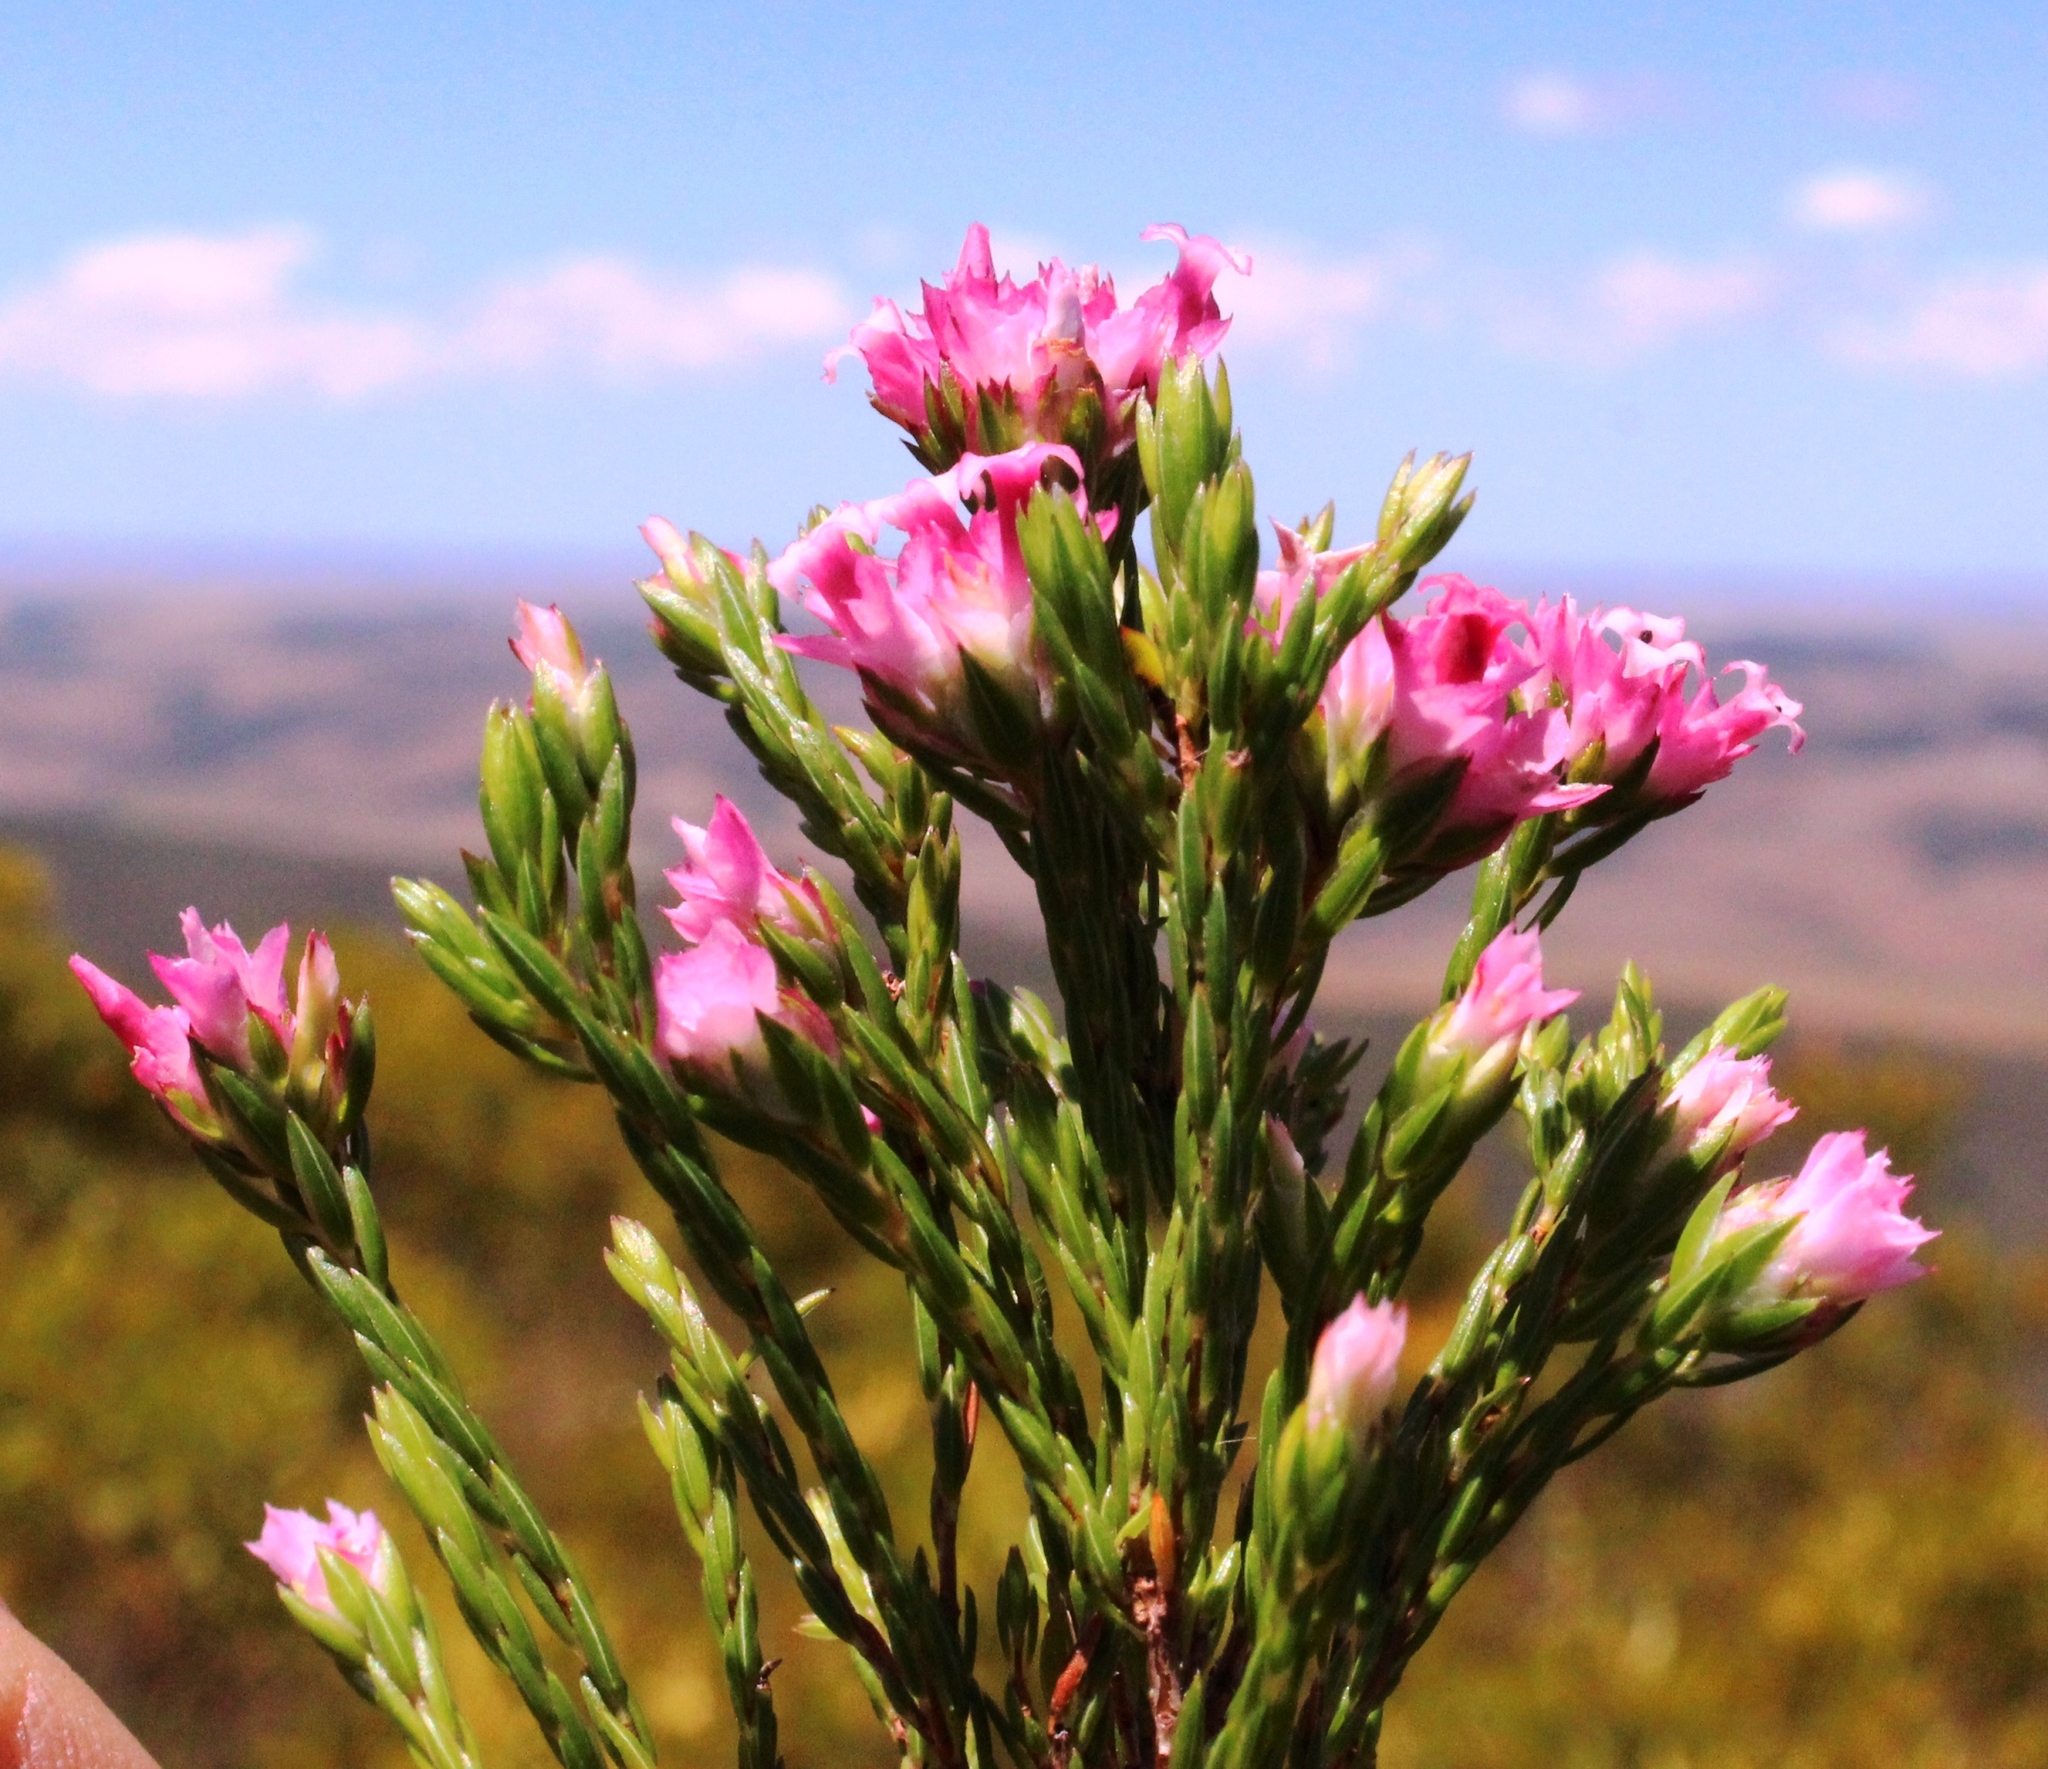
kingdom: Plantae
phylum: Tracheophyta
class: Magnoliopsida
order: Ericales
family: Ericaceae
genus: Erica
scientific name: Erica bracteolaris
